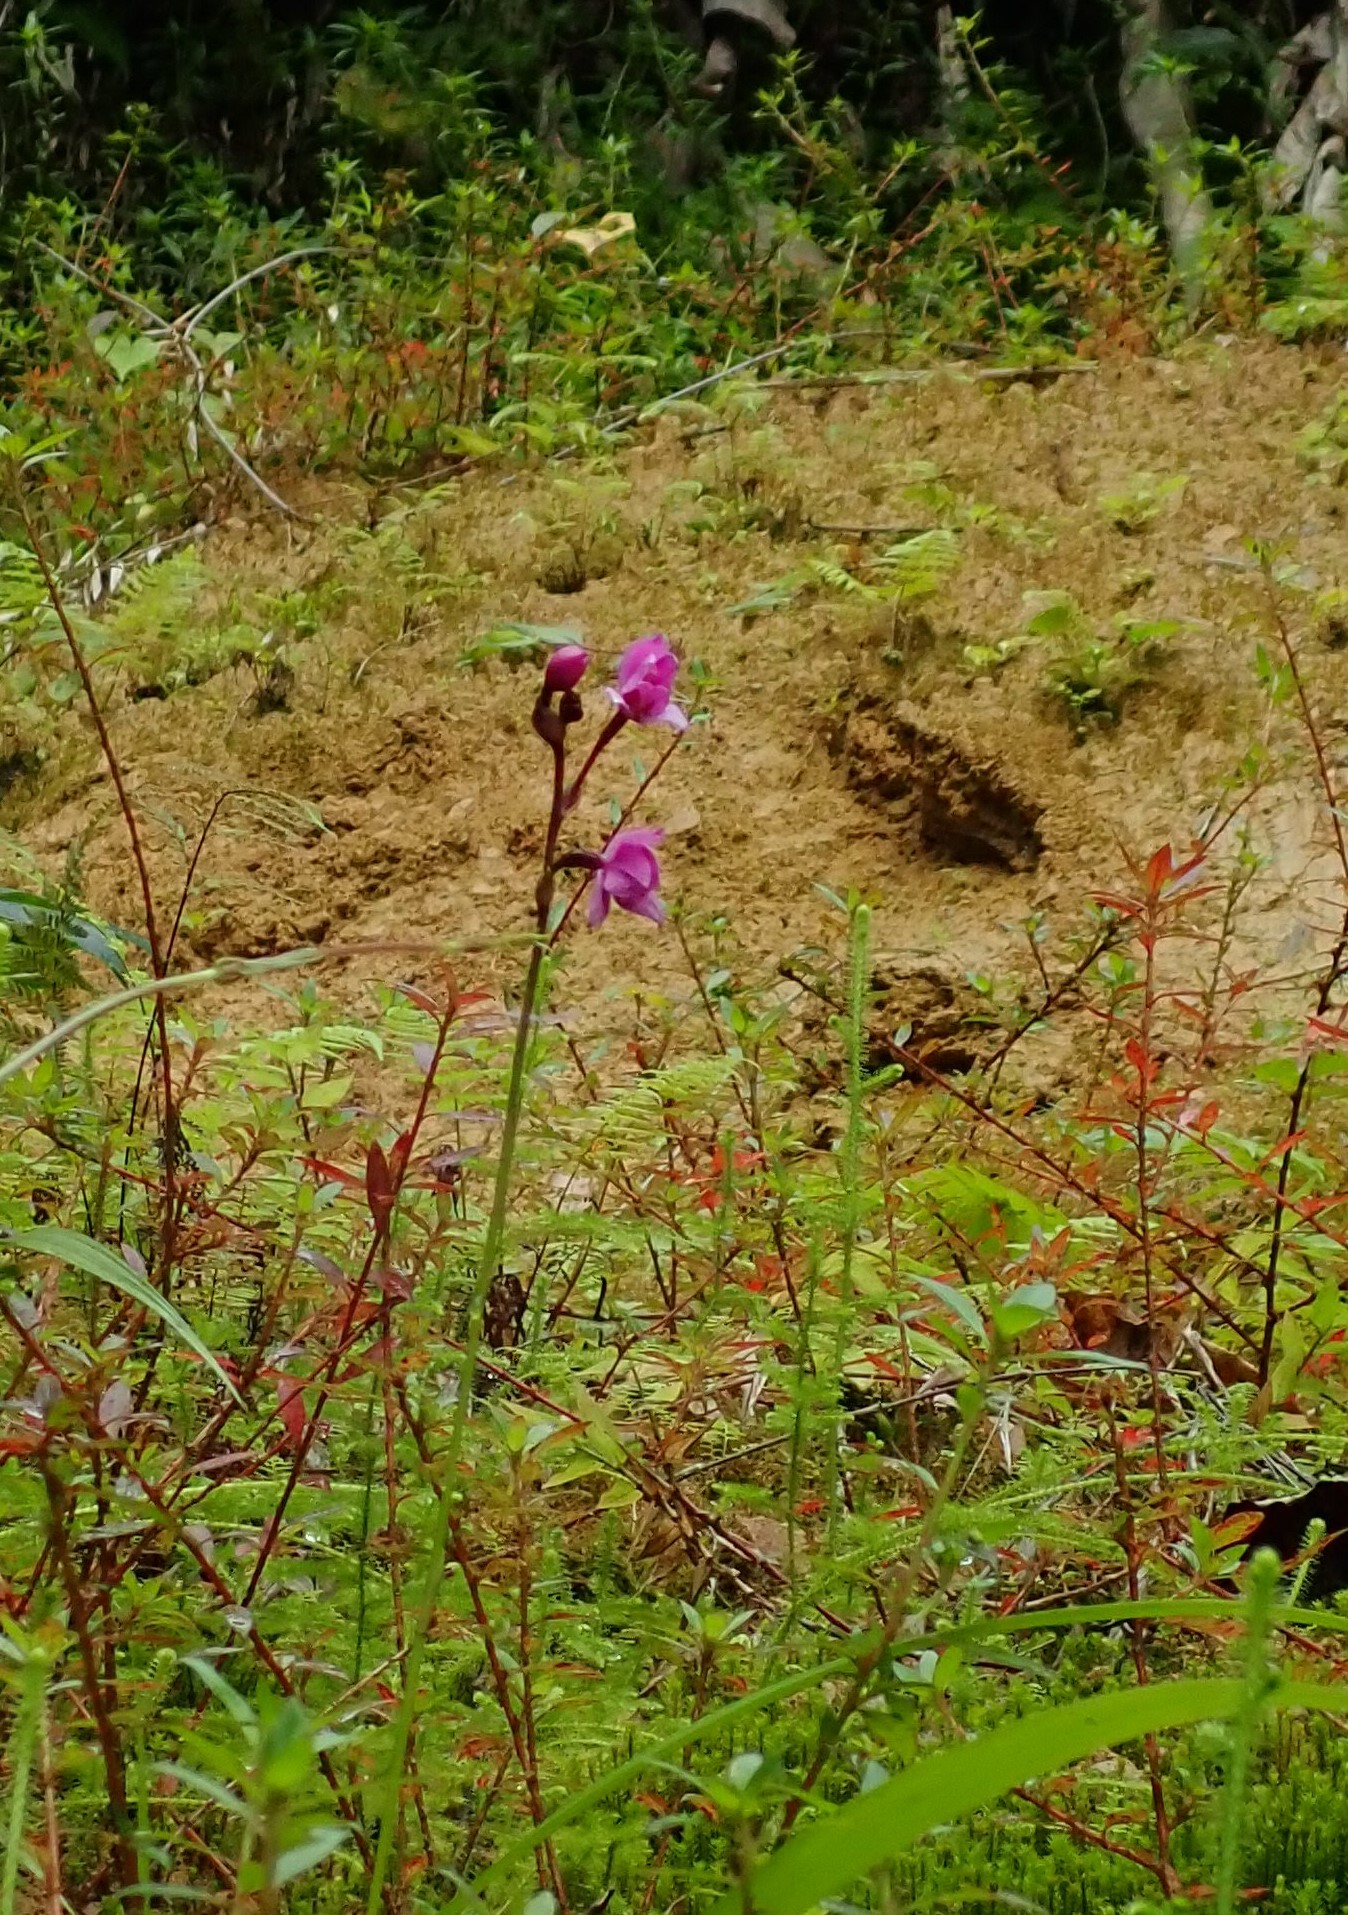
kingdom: Plantae
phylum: Tracheophyta
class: Liliopsida
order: Asparagales
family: Orchidaceae
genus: Spathoglottis
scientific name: Spathoglottis plicata
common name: Philippine ground orchid
